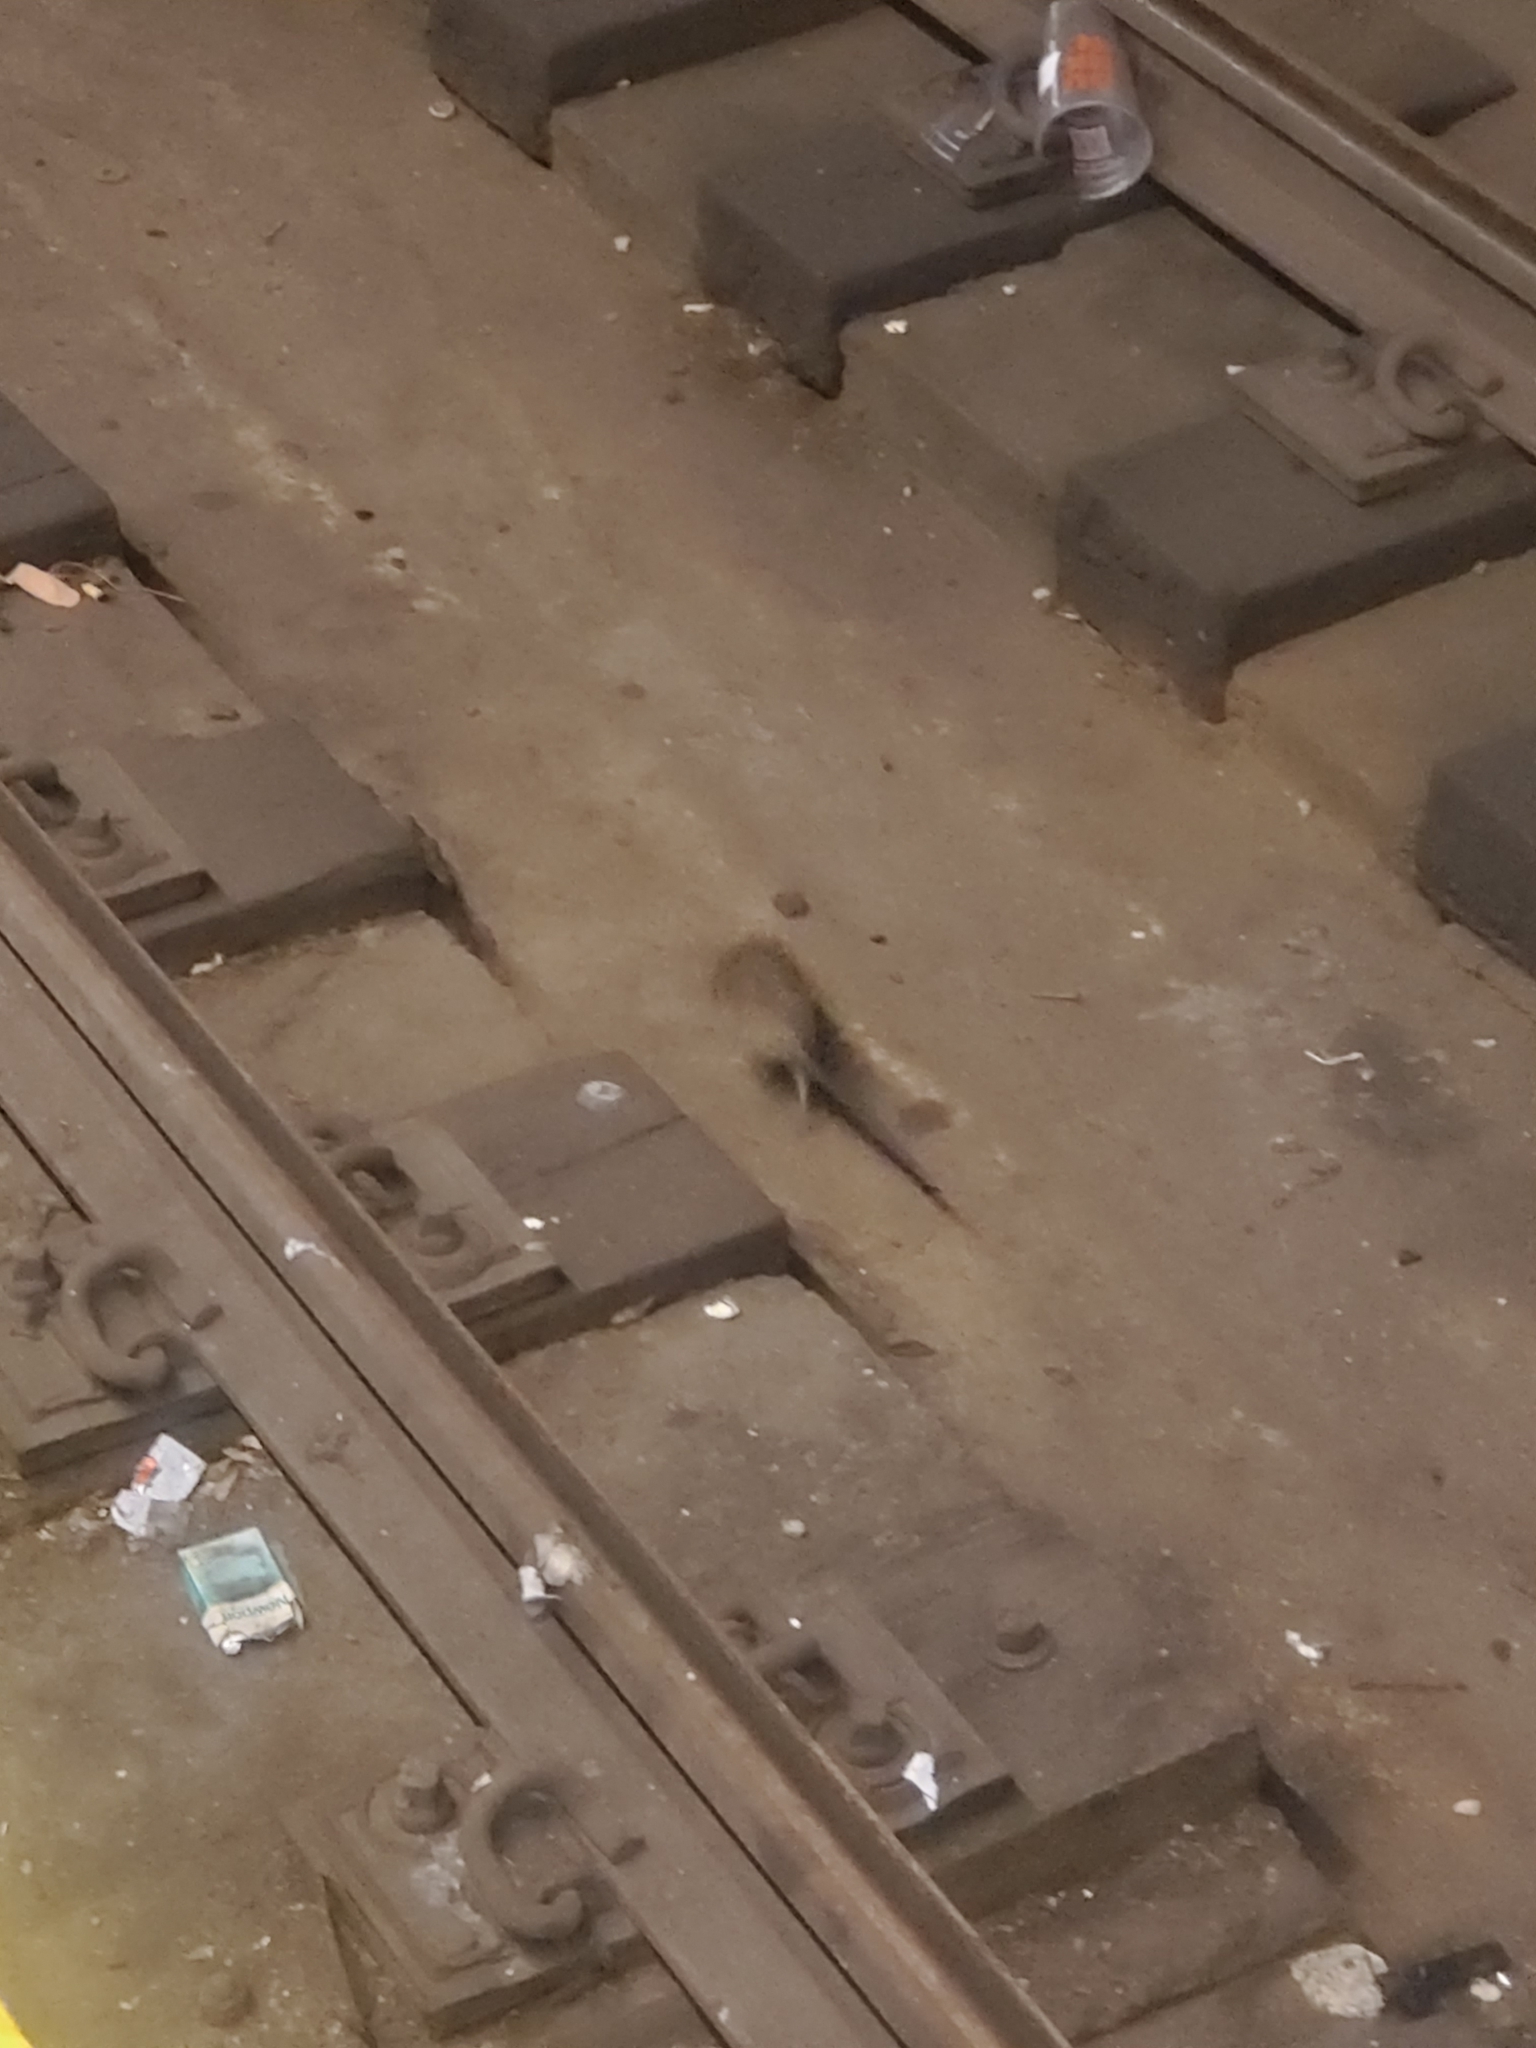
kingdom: Animalia
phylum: Chordata
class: Mammalia
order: Rodentia
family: Muridae
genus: Rattus
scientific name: Rattus norvegicus
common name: Brown rat
